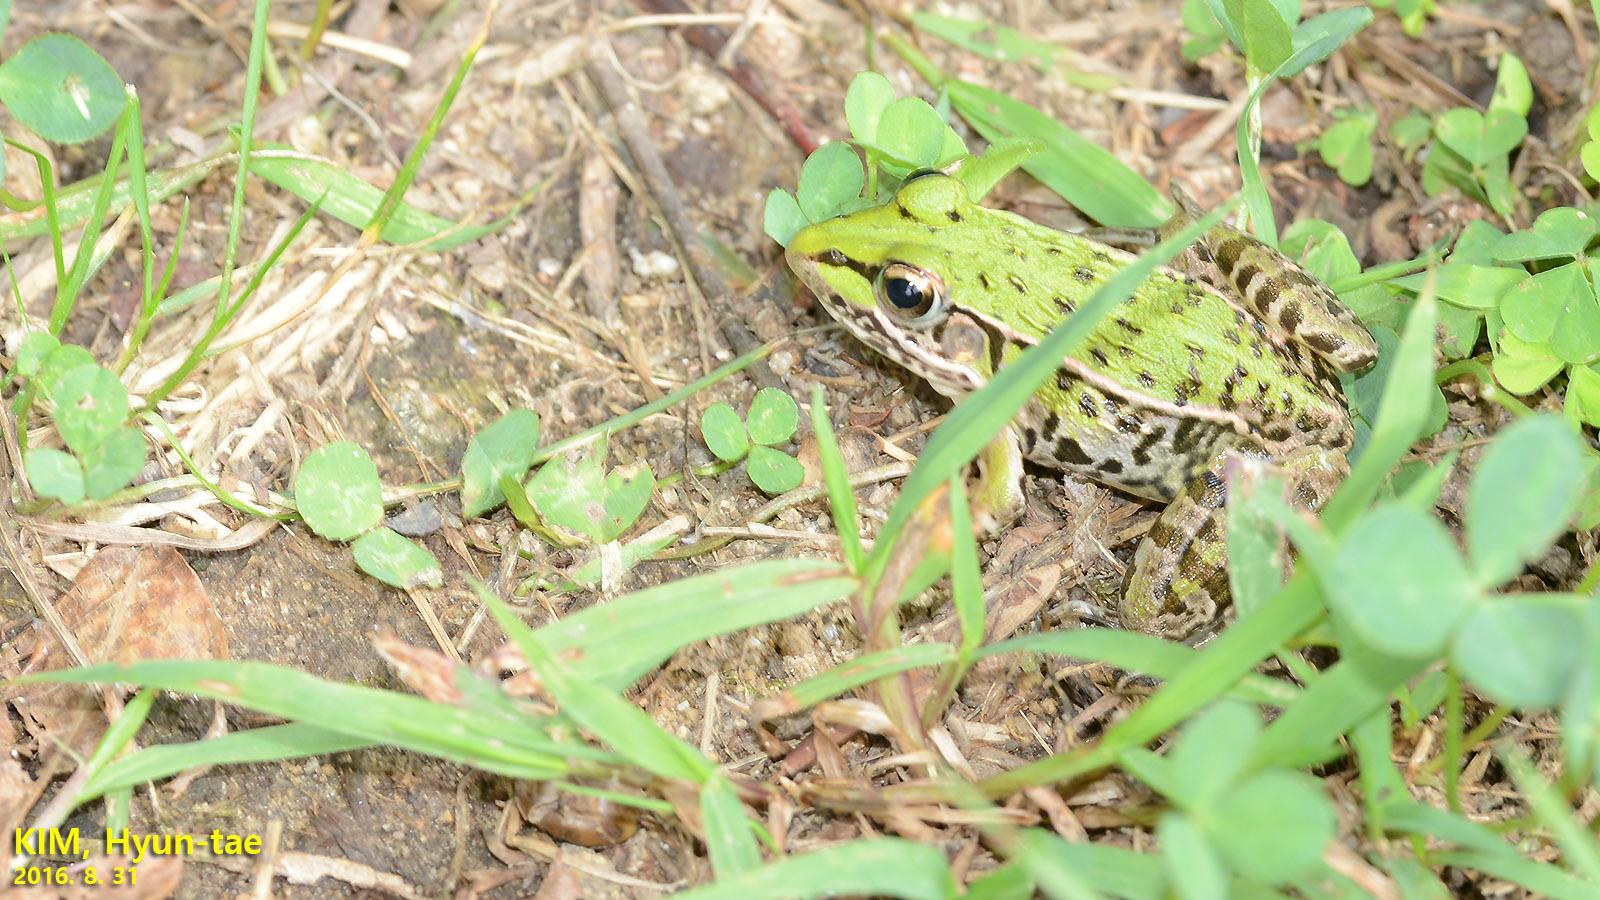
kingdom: Animalia
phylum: Chordata
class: Amphibia
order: Anura
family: Ranidae
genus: Pelophylax
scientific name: Pelophylax nigromaculatus
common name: Black-spotted pond frog
